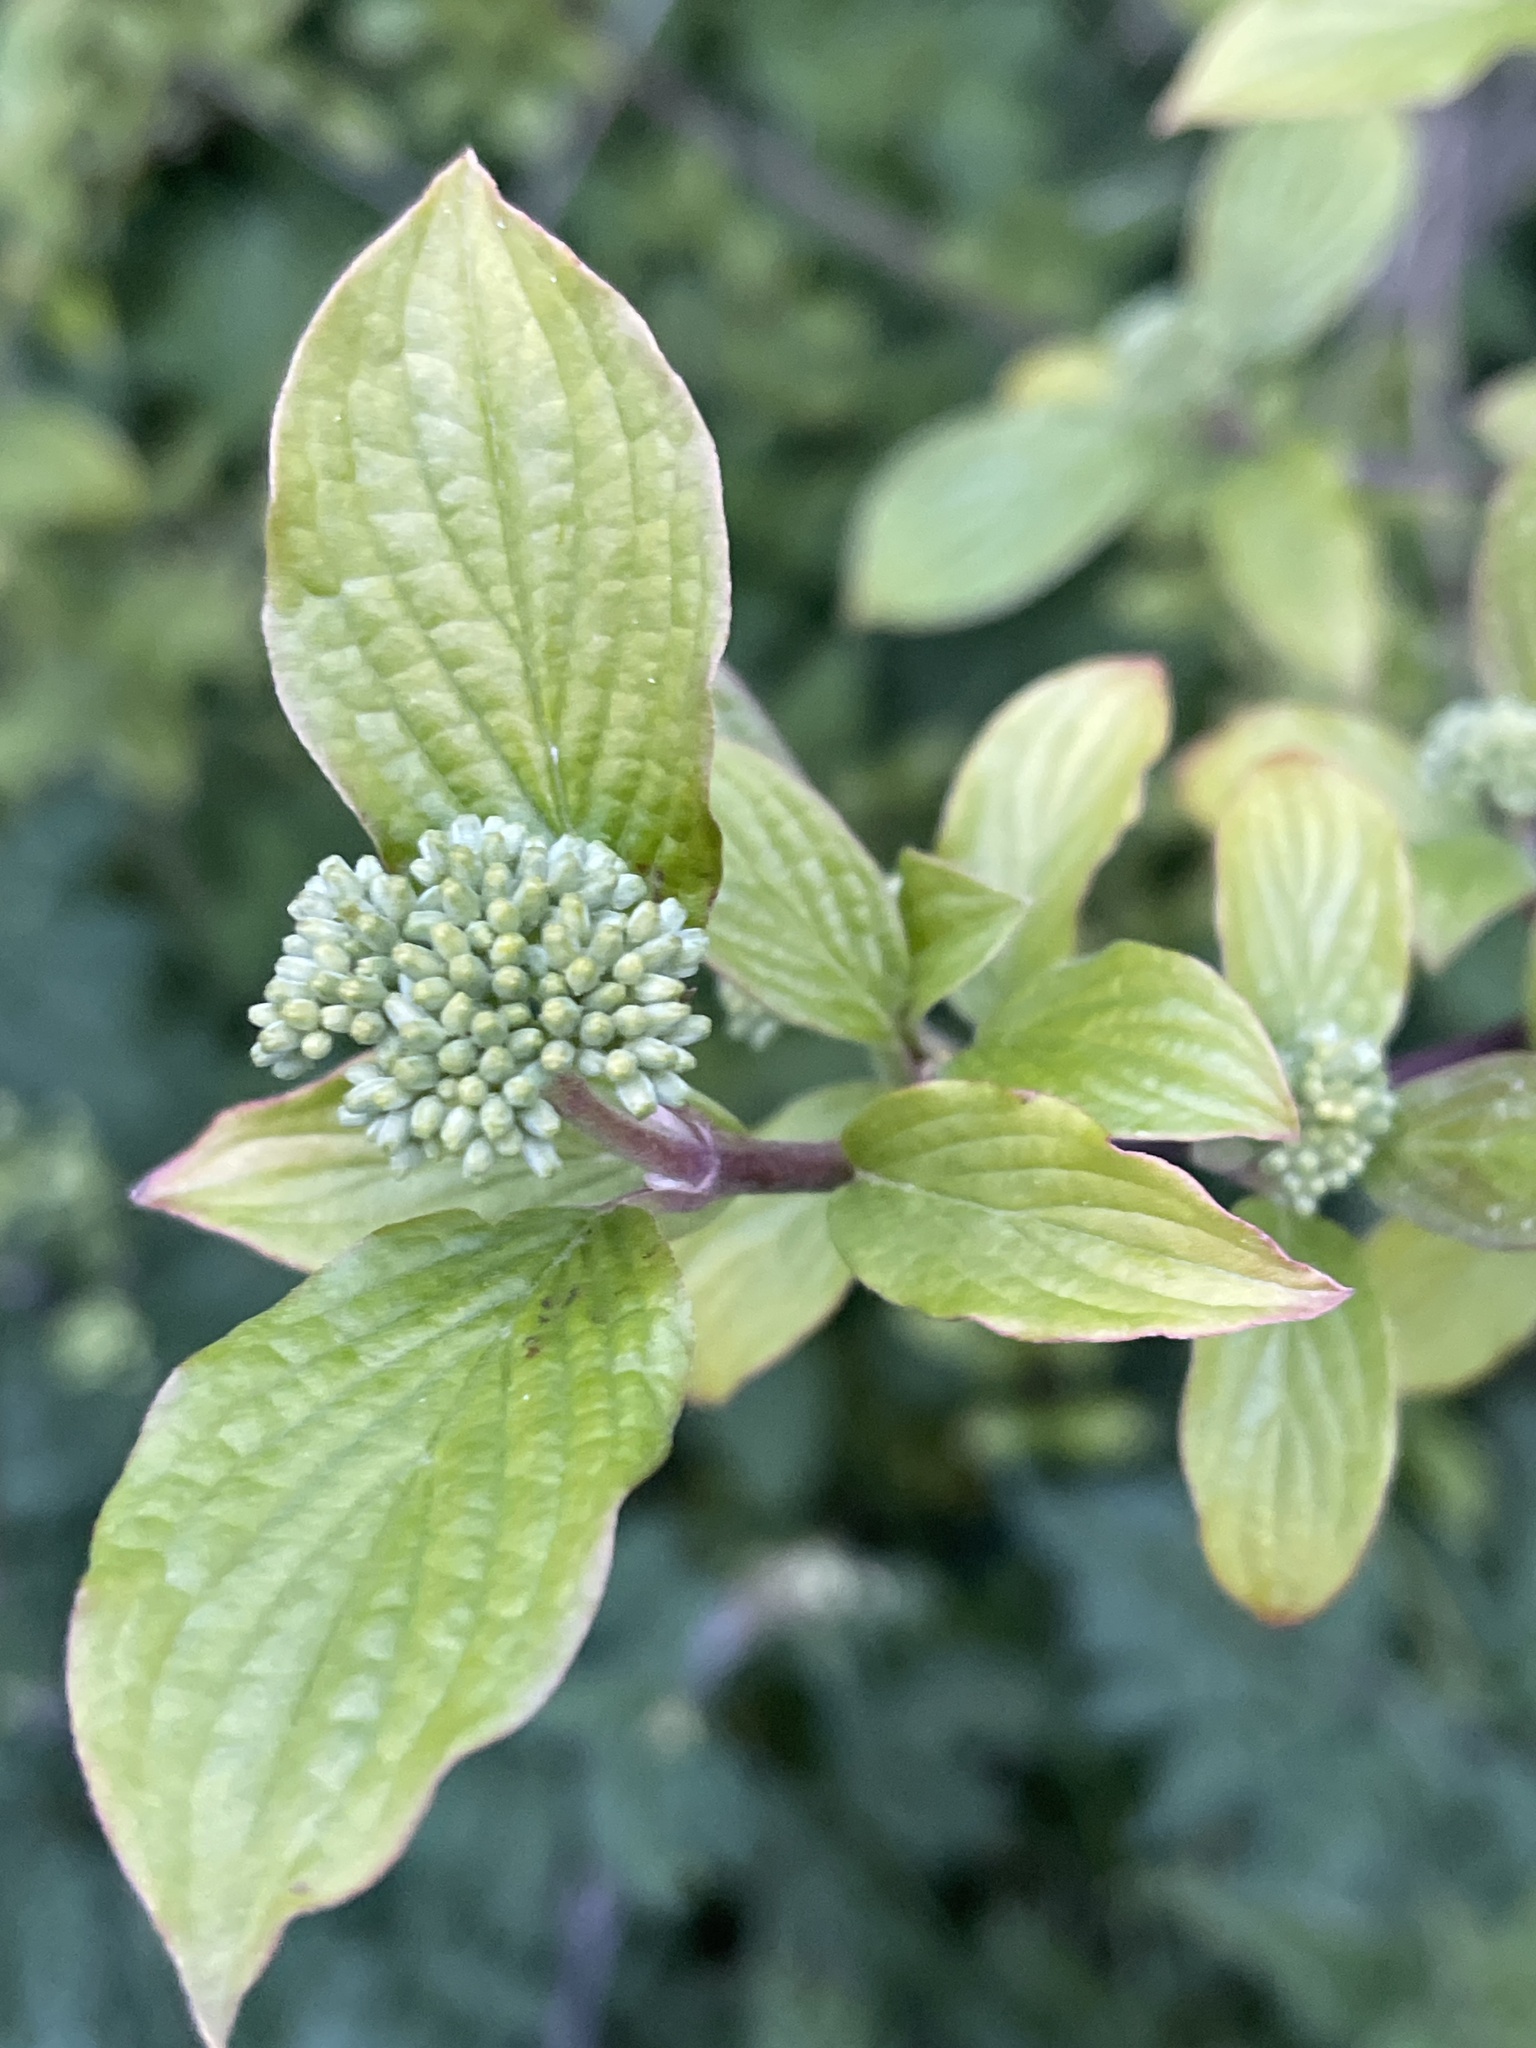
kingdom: Plantae
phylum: Tracheophyta
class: Magnoliopsida
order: Cornales
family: Cornaceae
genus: Cornus
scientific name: Cornus sanguinea
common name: Dogwood
